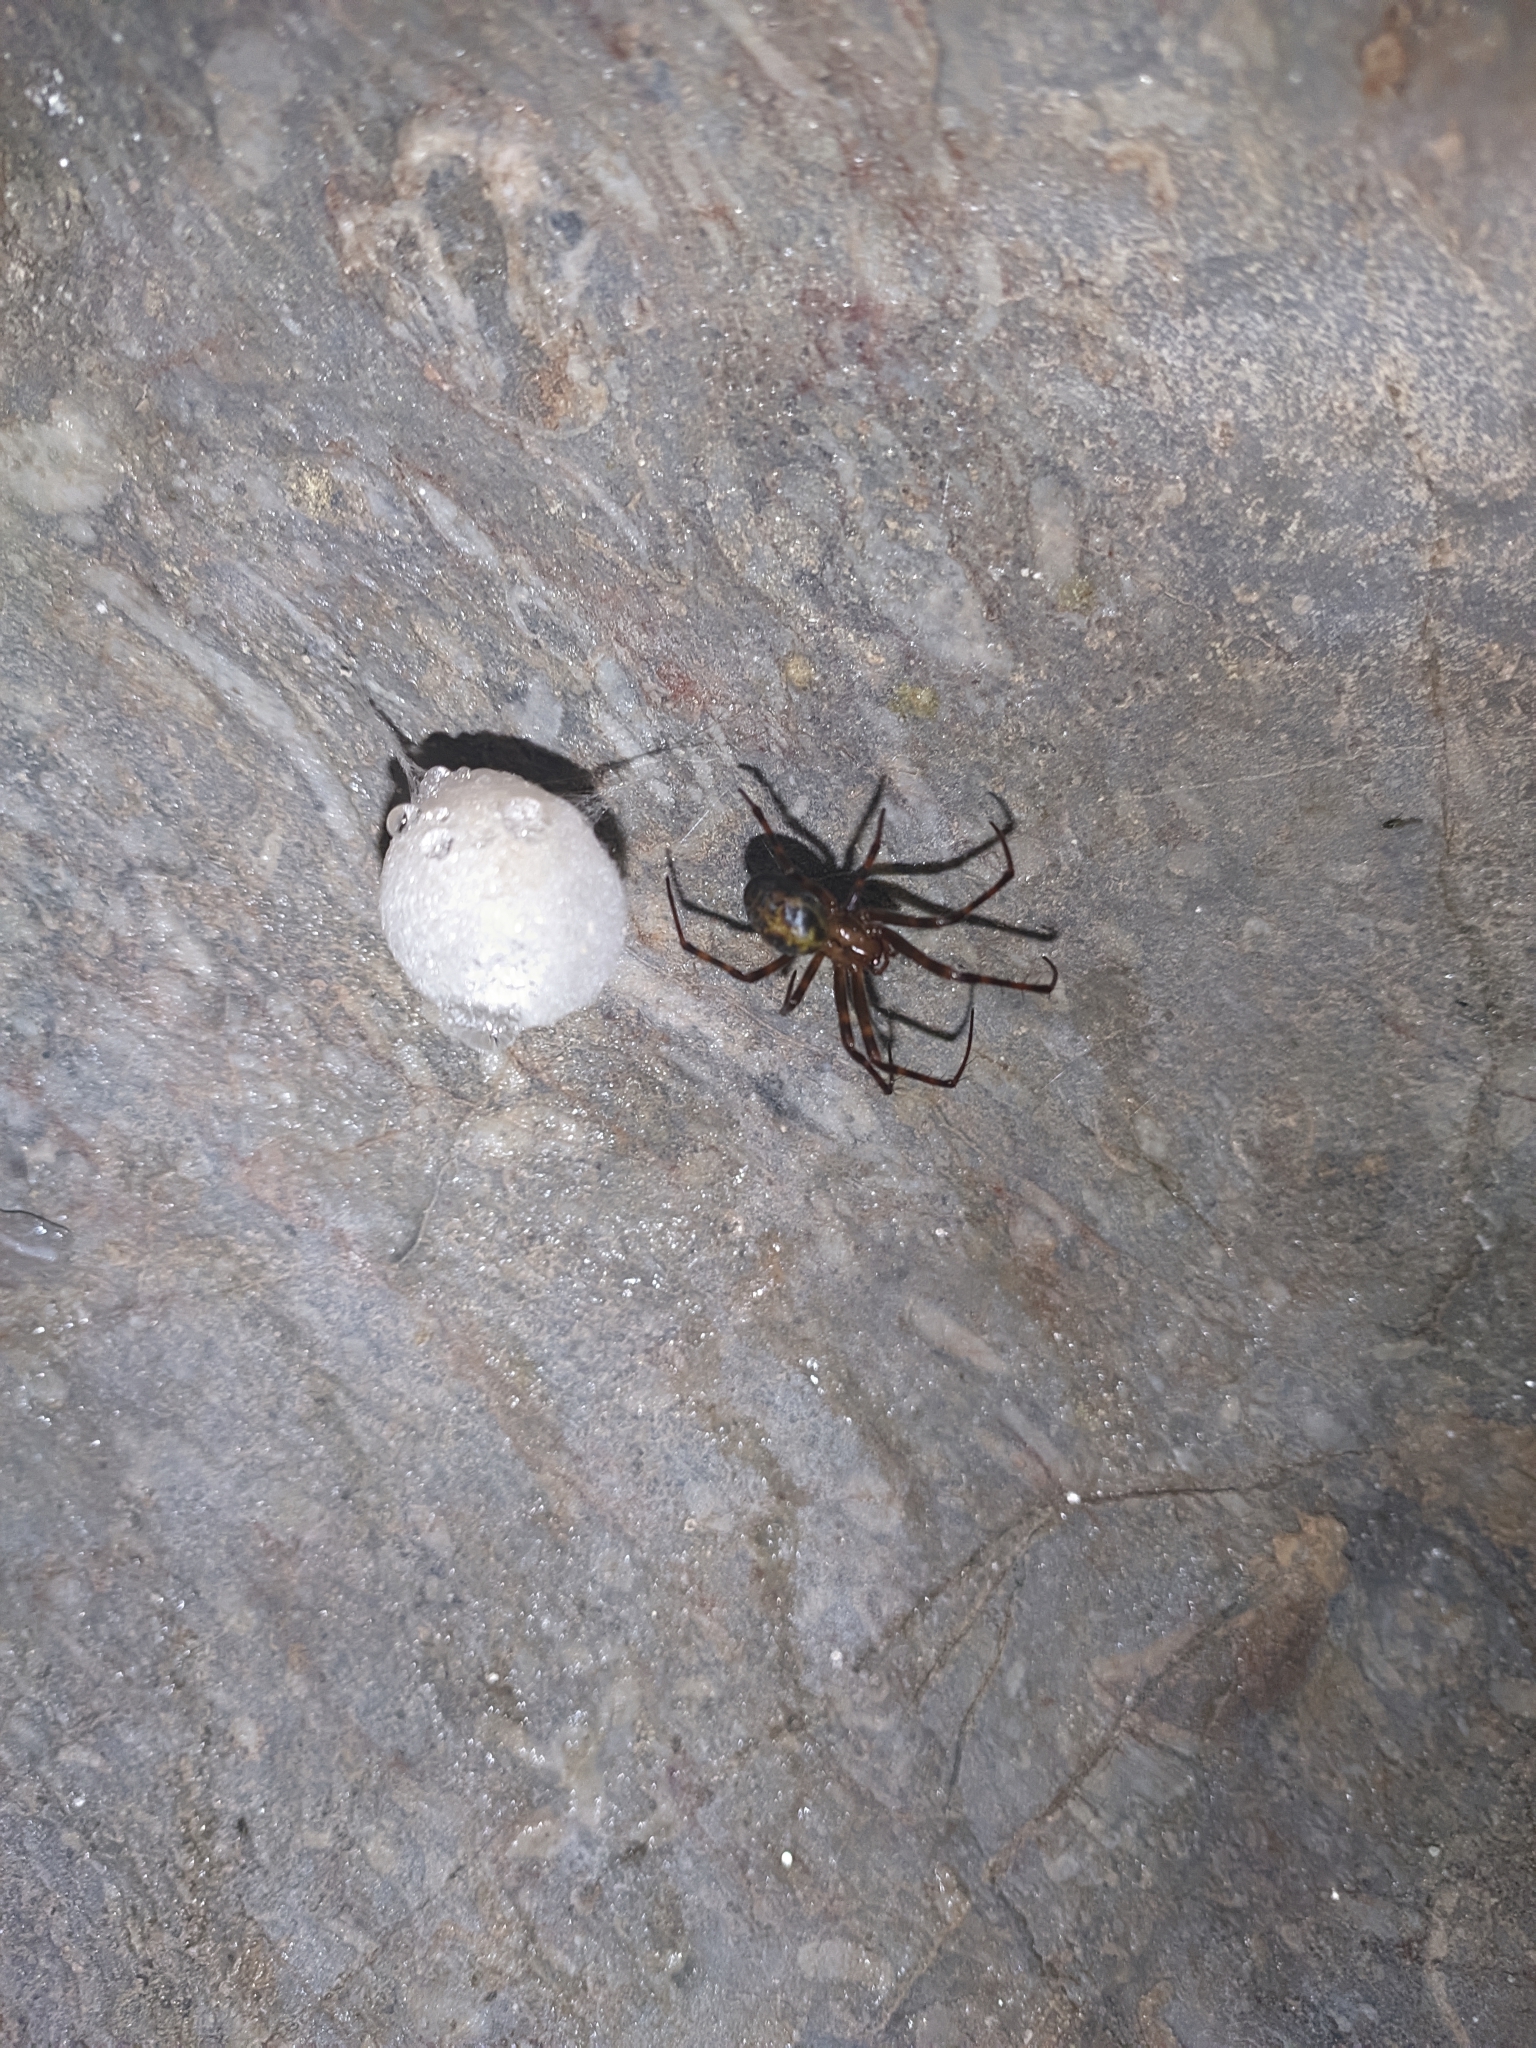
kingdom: Animalia
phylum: Arthropoda
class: Arachnida
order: Araneae
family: Tetragnathidae
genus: Meta
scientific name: Meta menardi
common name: Cave spider
